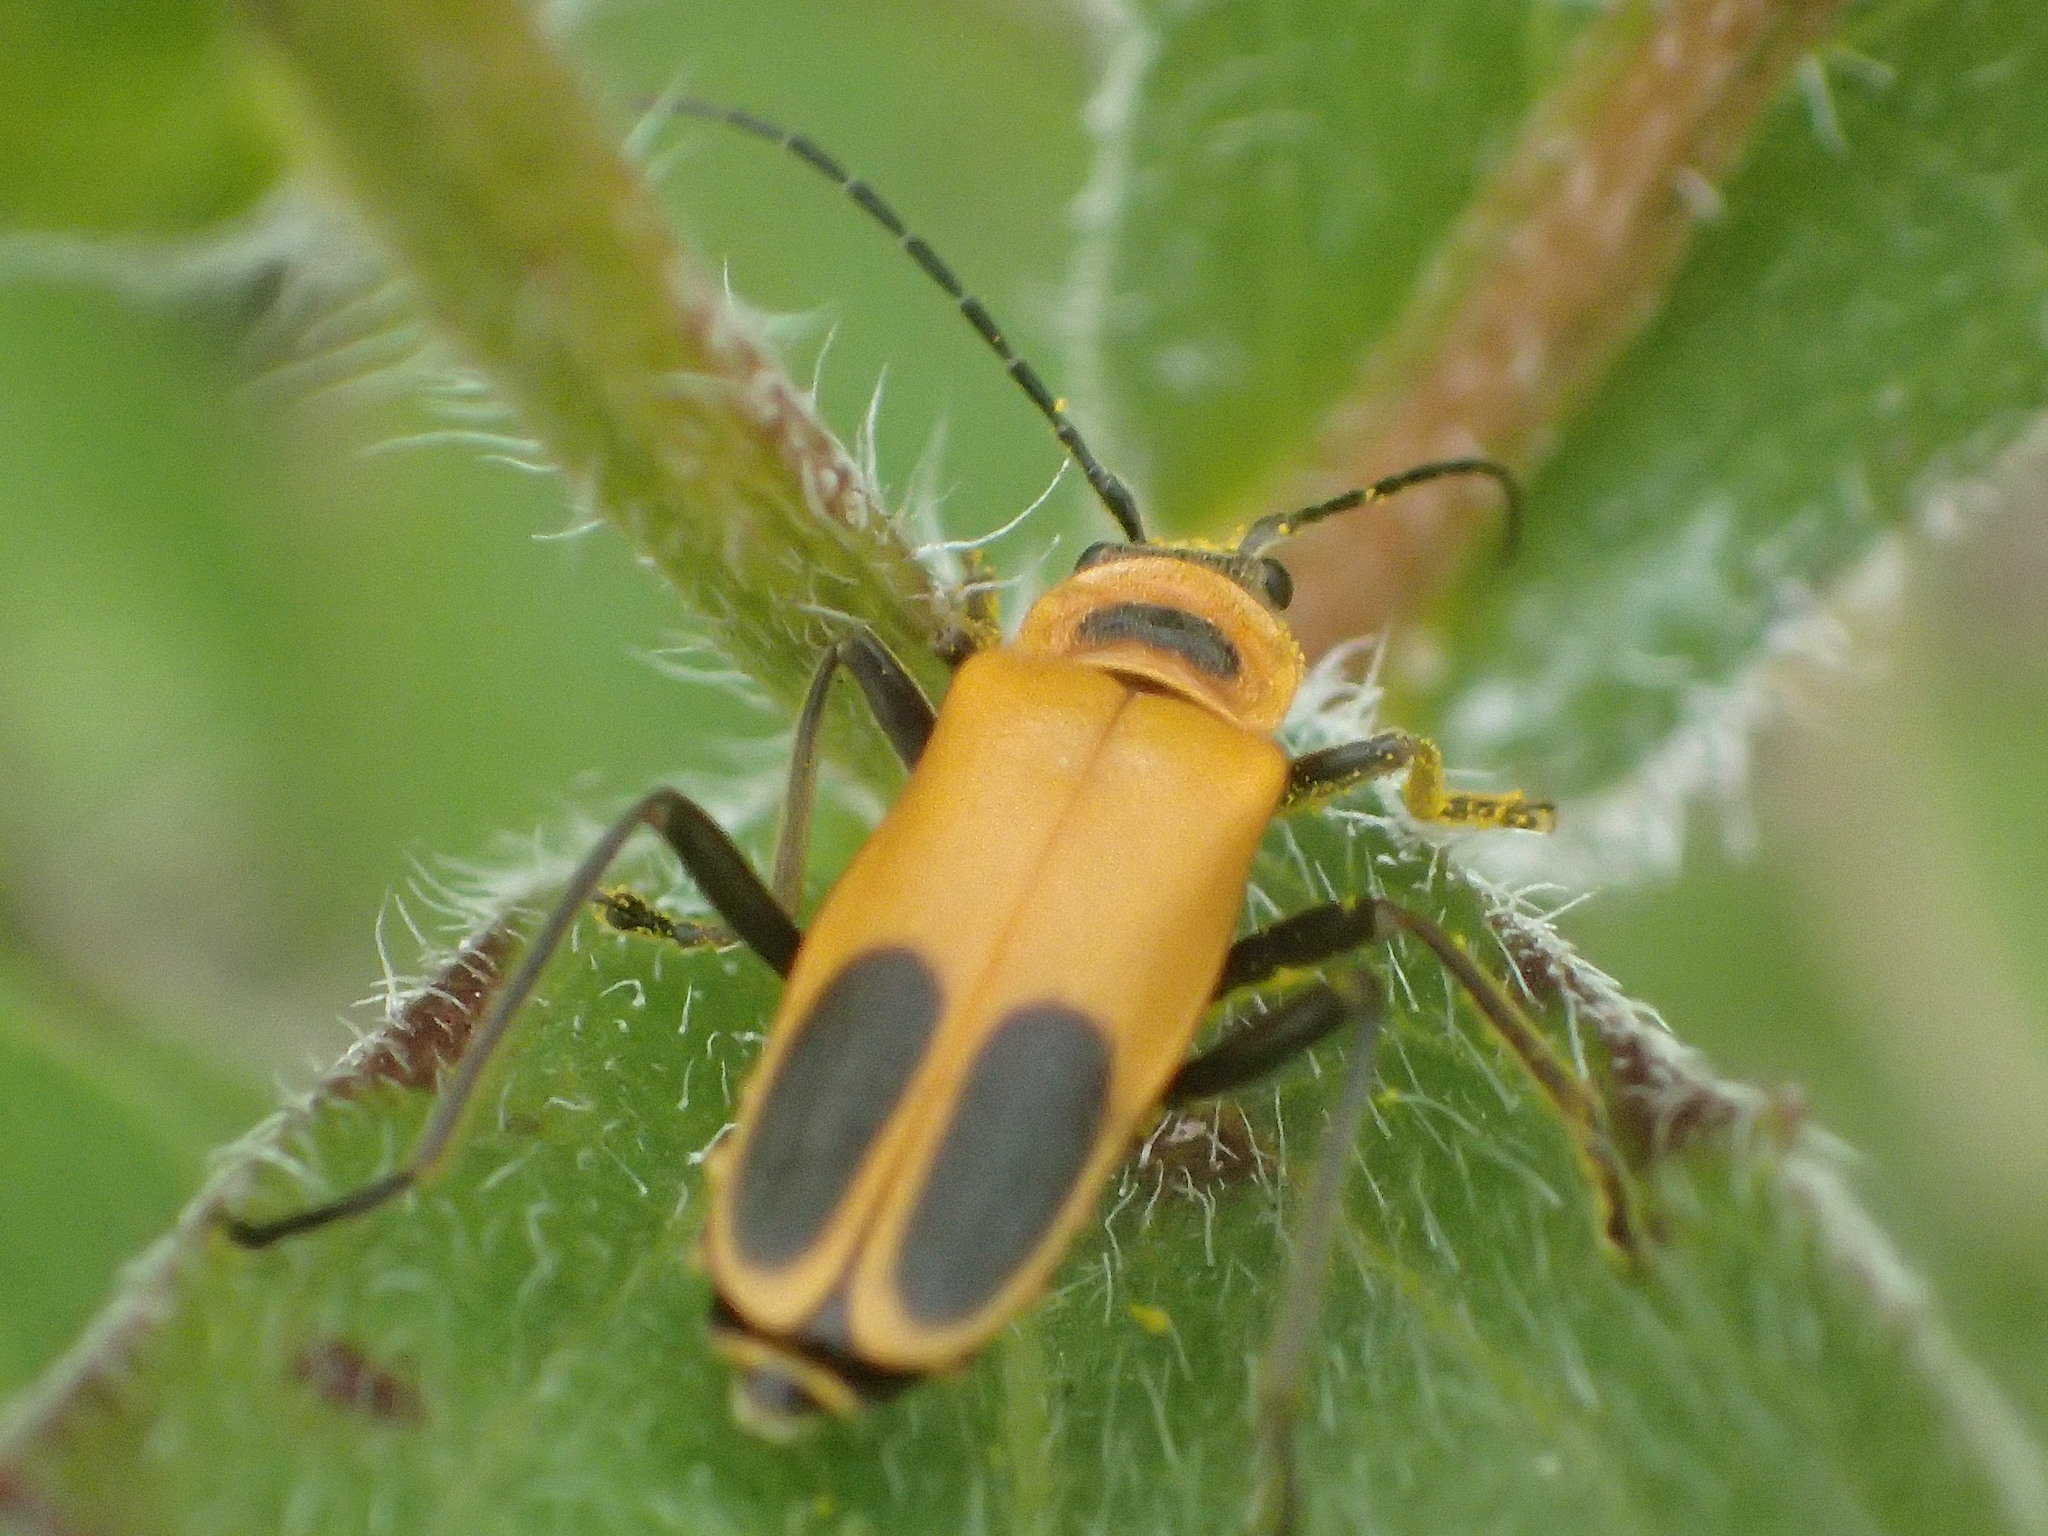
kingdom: Animalia
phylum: Arthropoda
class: Insecta
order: Coleoptera
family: Cantharidae
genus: Chauliognathus
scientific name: Chauliognathus pensylvanicus
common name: Goldenrod soldier beetle
